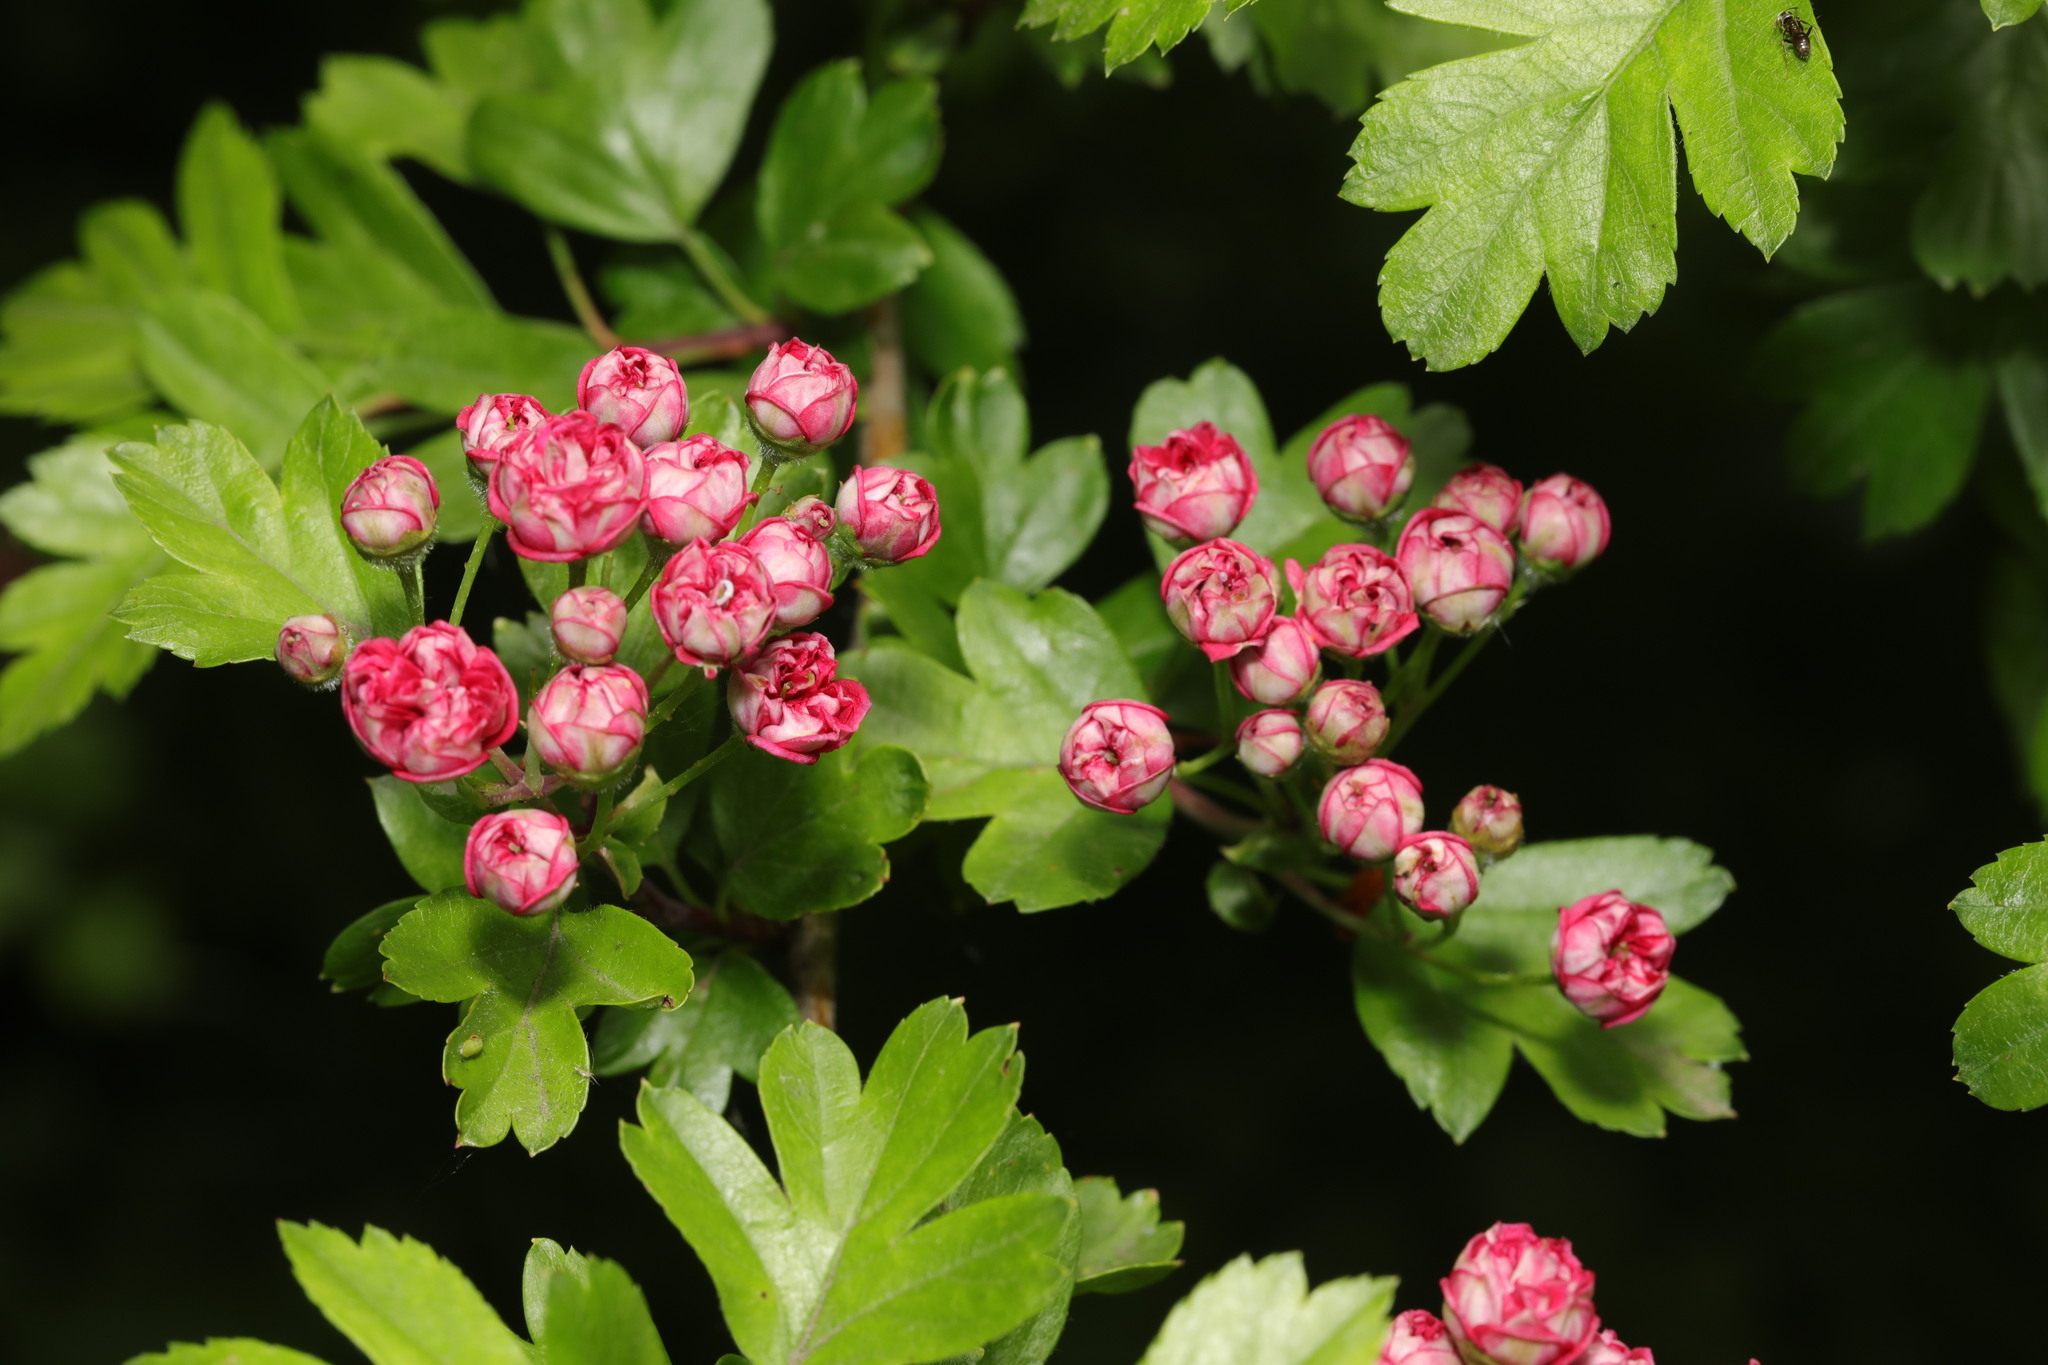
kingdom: Plantae
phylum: Tracheophyta
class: Magnoliopsida
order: Rosales
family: Rosaceae
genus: Crataegus
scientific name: Crataegus monogyna
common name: Hawthorn
